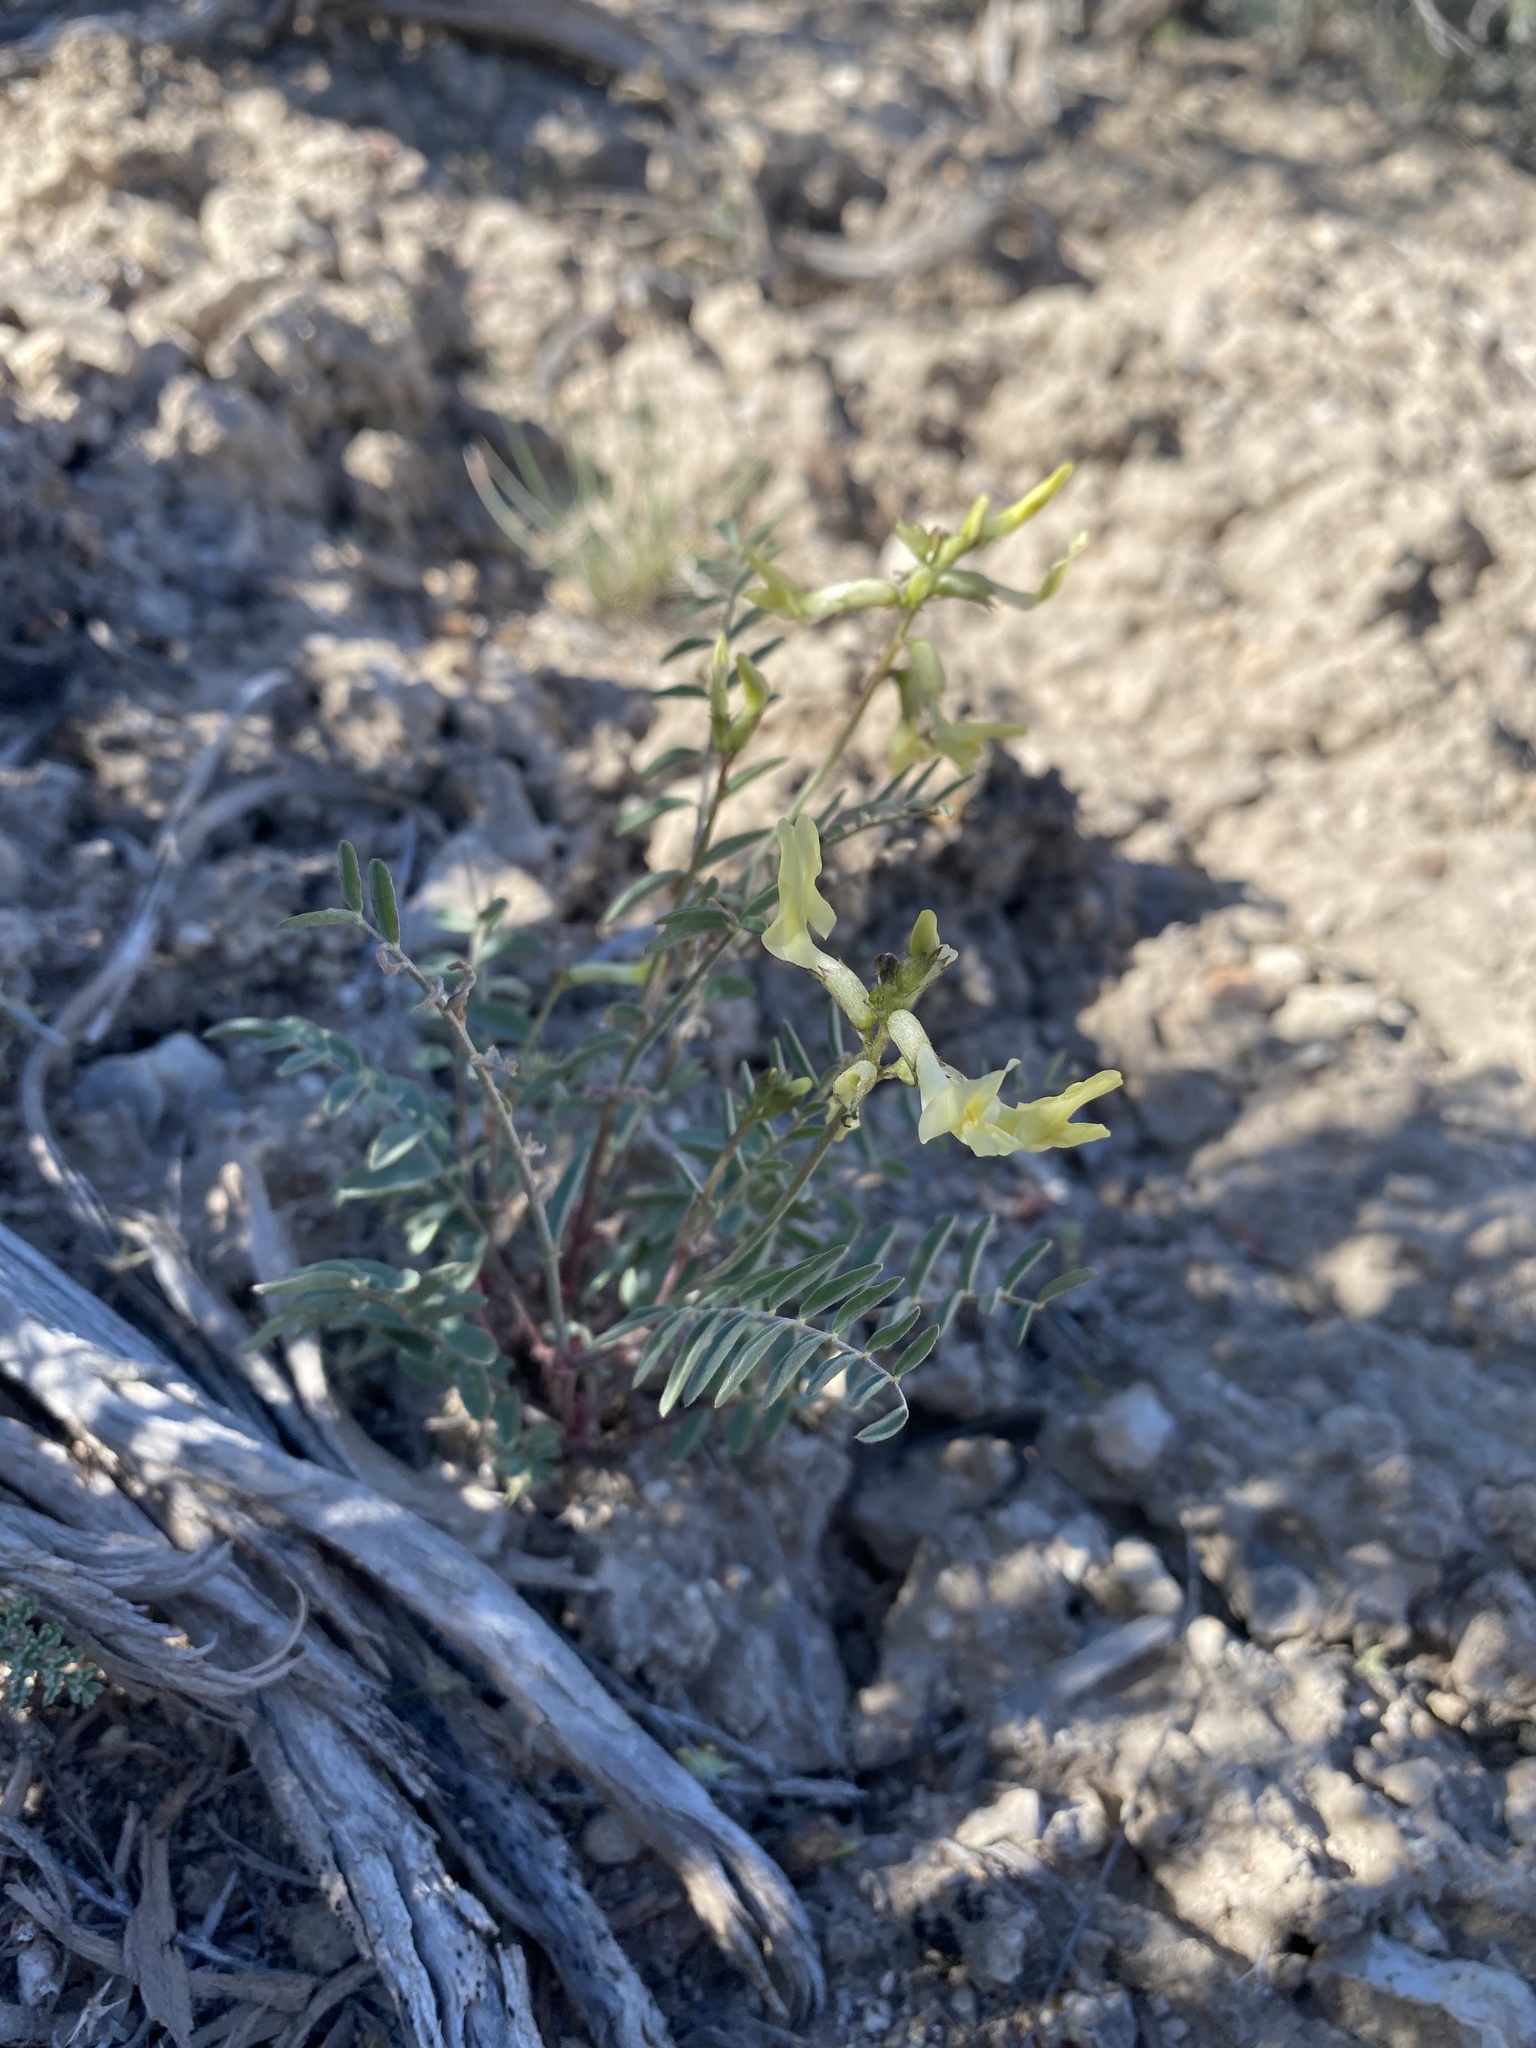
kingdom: Plantae
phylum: Tracheophyta
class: Magnoliopsida
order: Fabales
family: Fabaceae
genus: Astragalus
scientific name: Astragalus eremiticus
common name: Hermit milk-vetch
